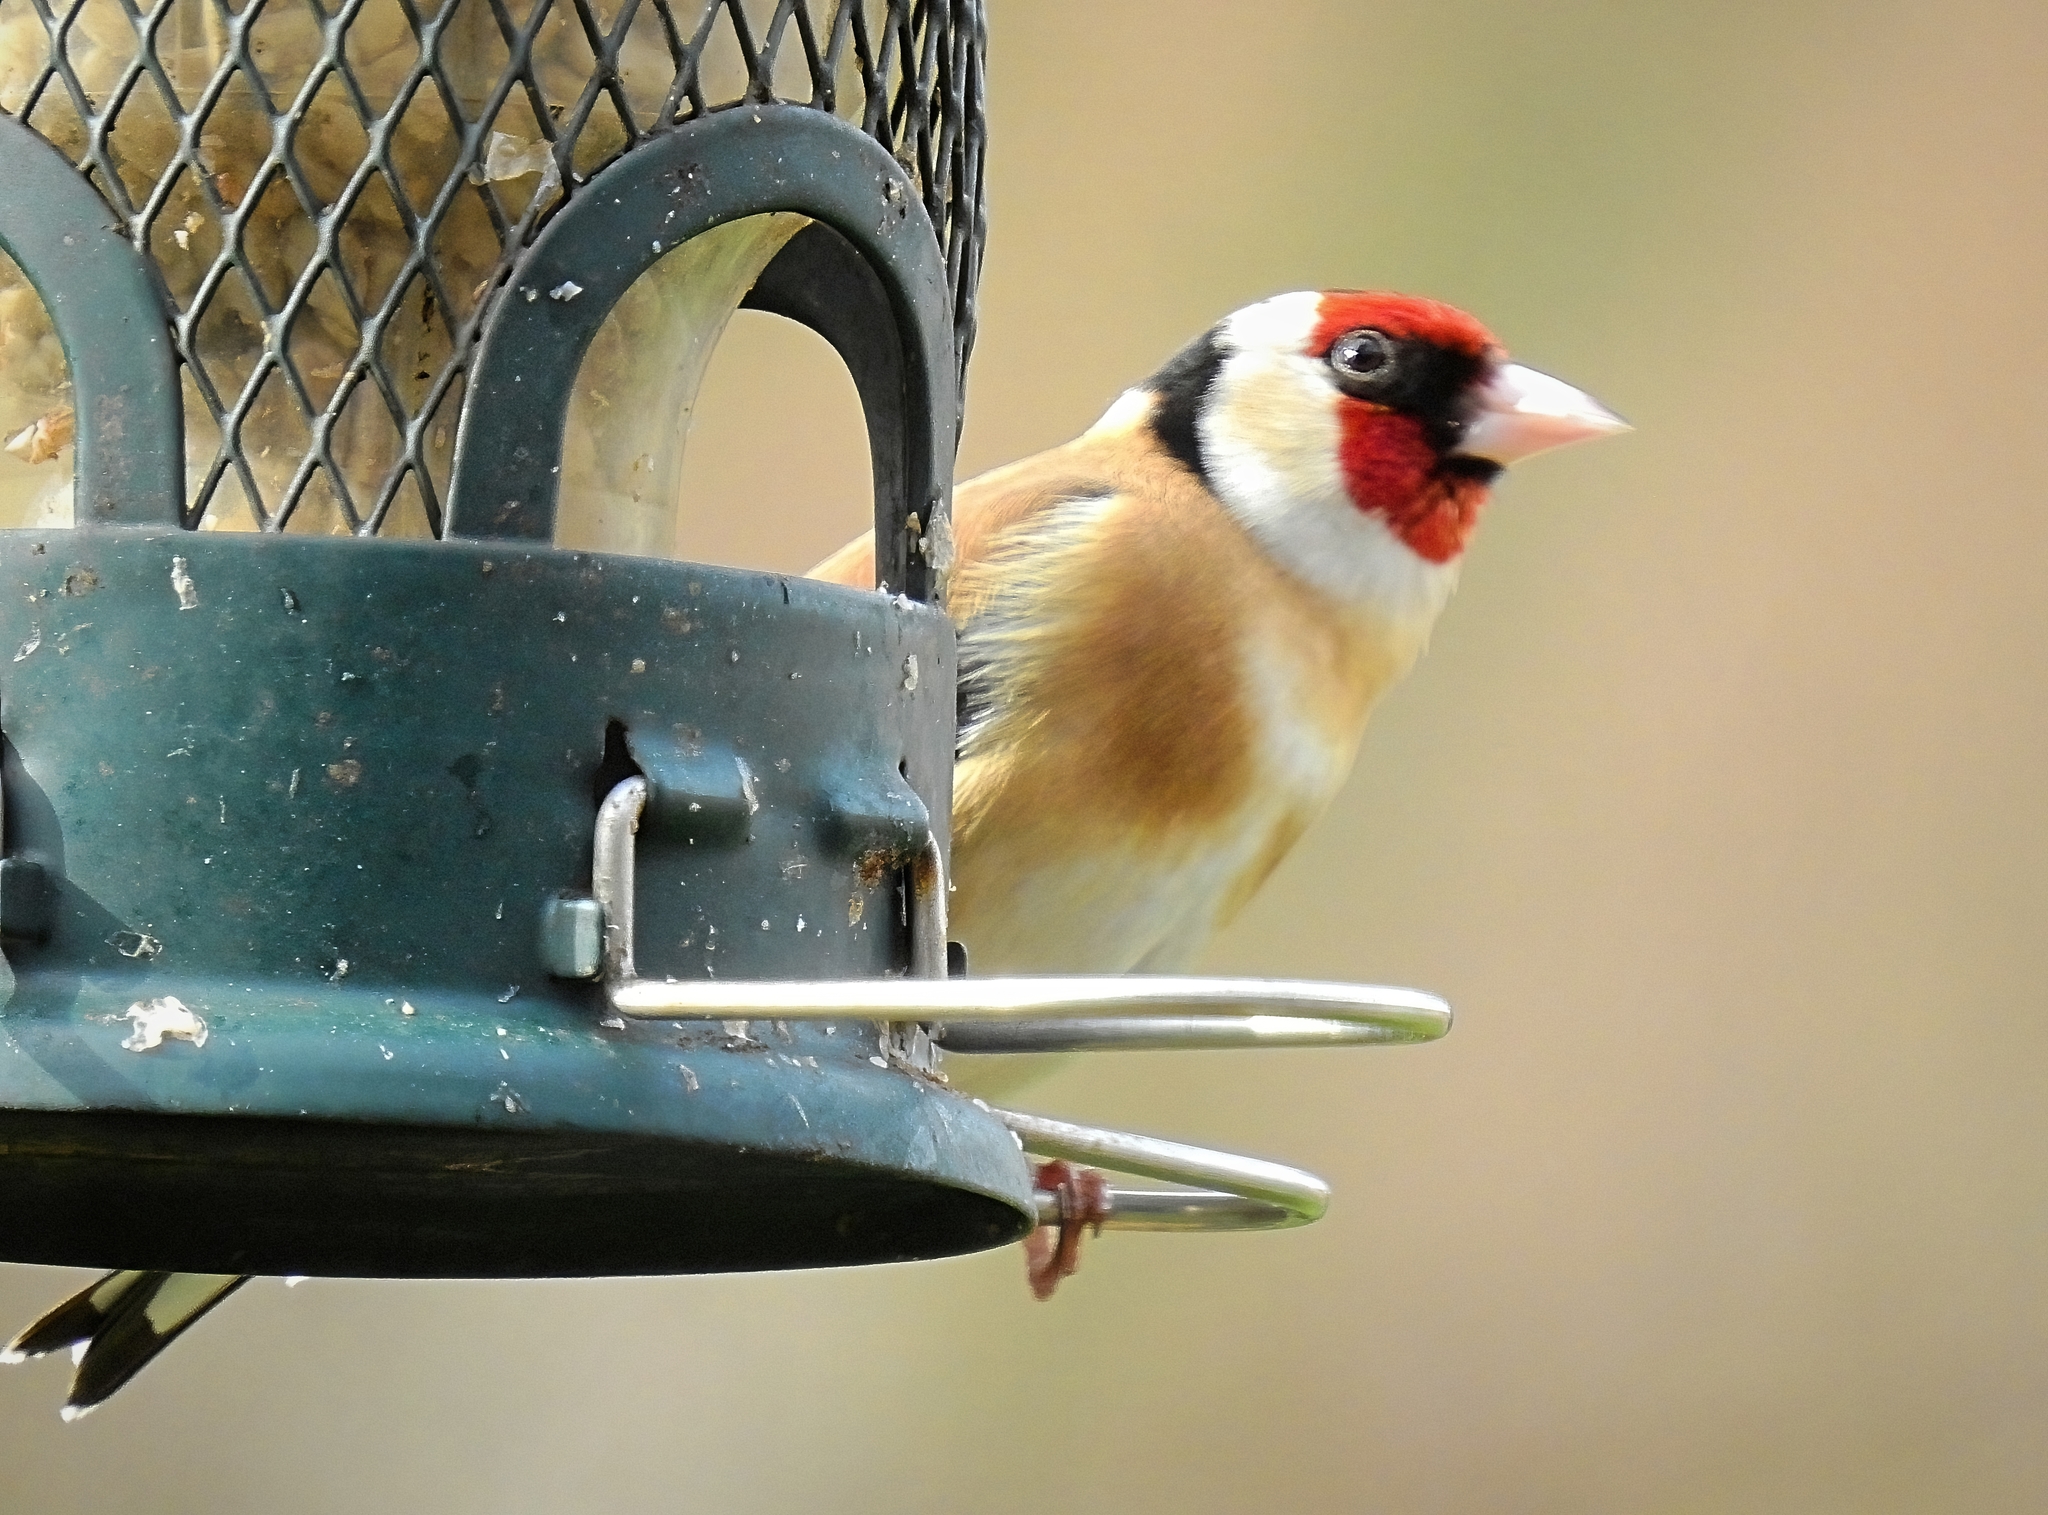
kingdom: Animalia
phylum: Chordata
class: Aves
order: Passeriformes
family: Fringillidae
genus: Carduelis
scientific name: Carduelis carduelis
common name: European goldfinch
